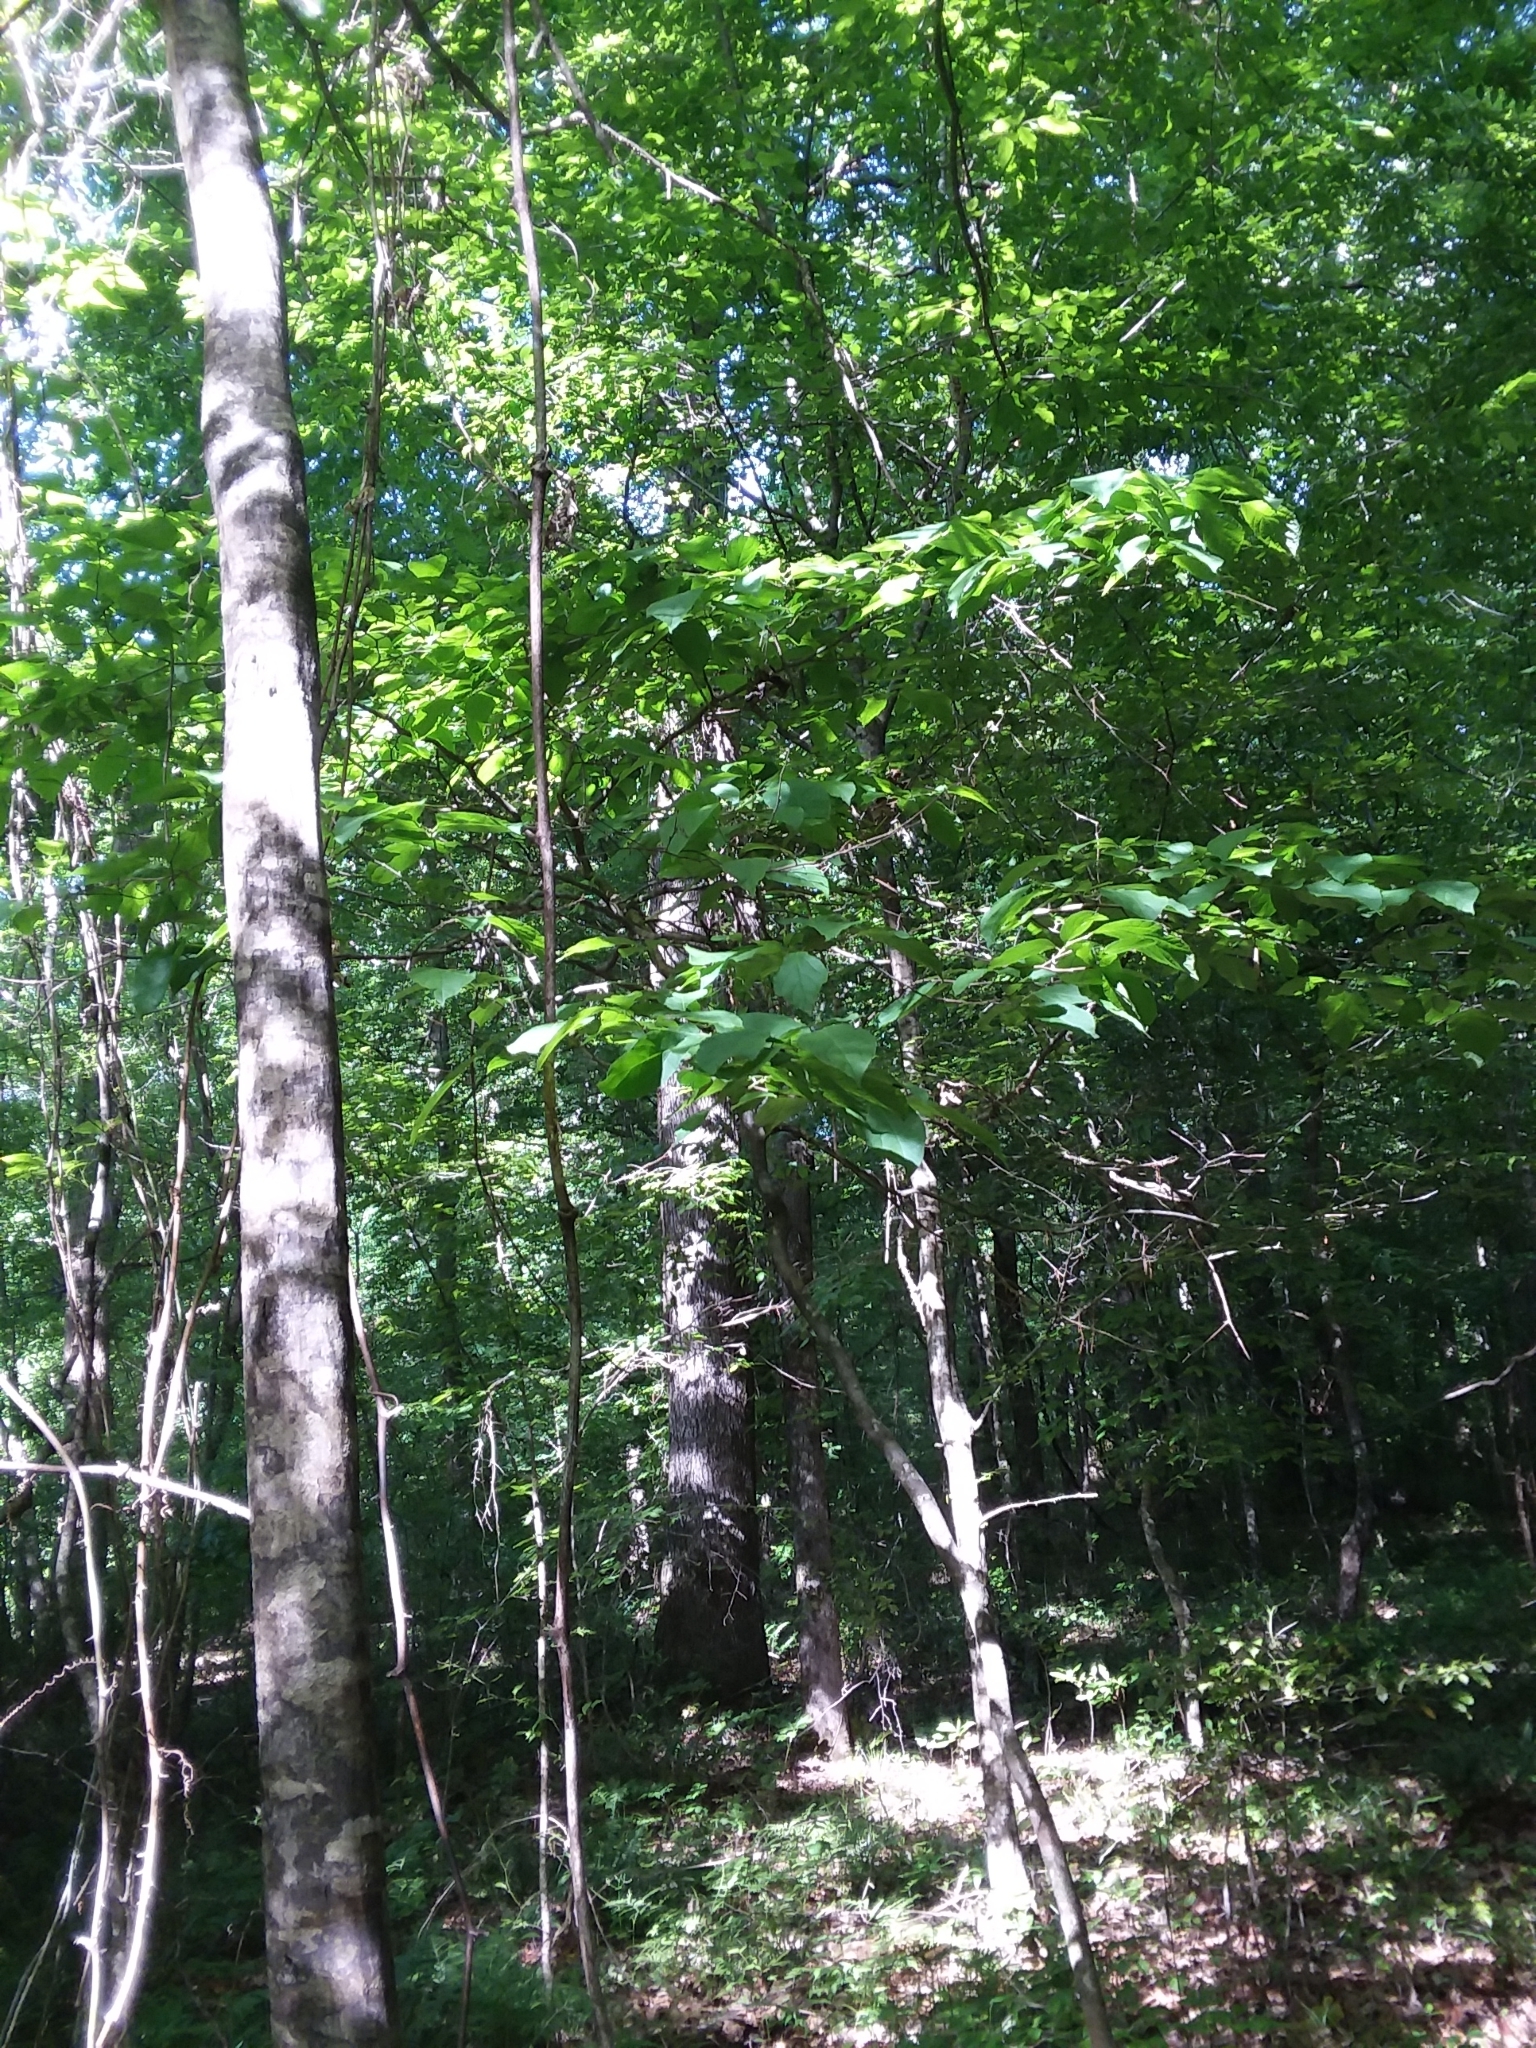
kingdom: Plantae
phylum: Tracheophyta
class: Magnoliopsida
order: Ericales
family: Styracaceae
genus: Styrax
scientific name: Styrax grandifolius
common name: Big-leaf snowbell
